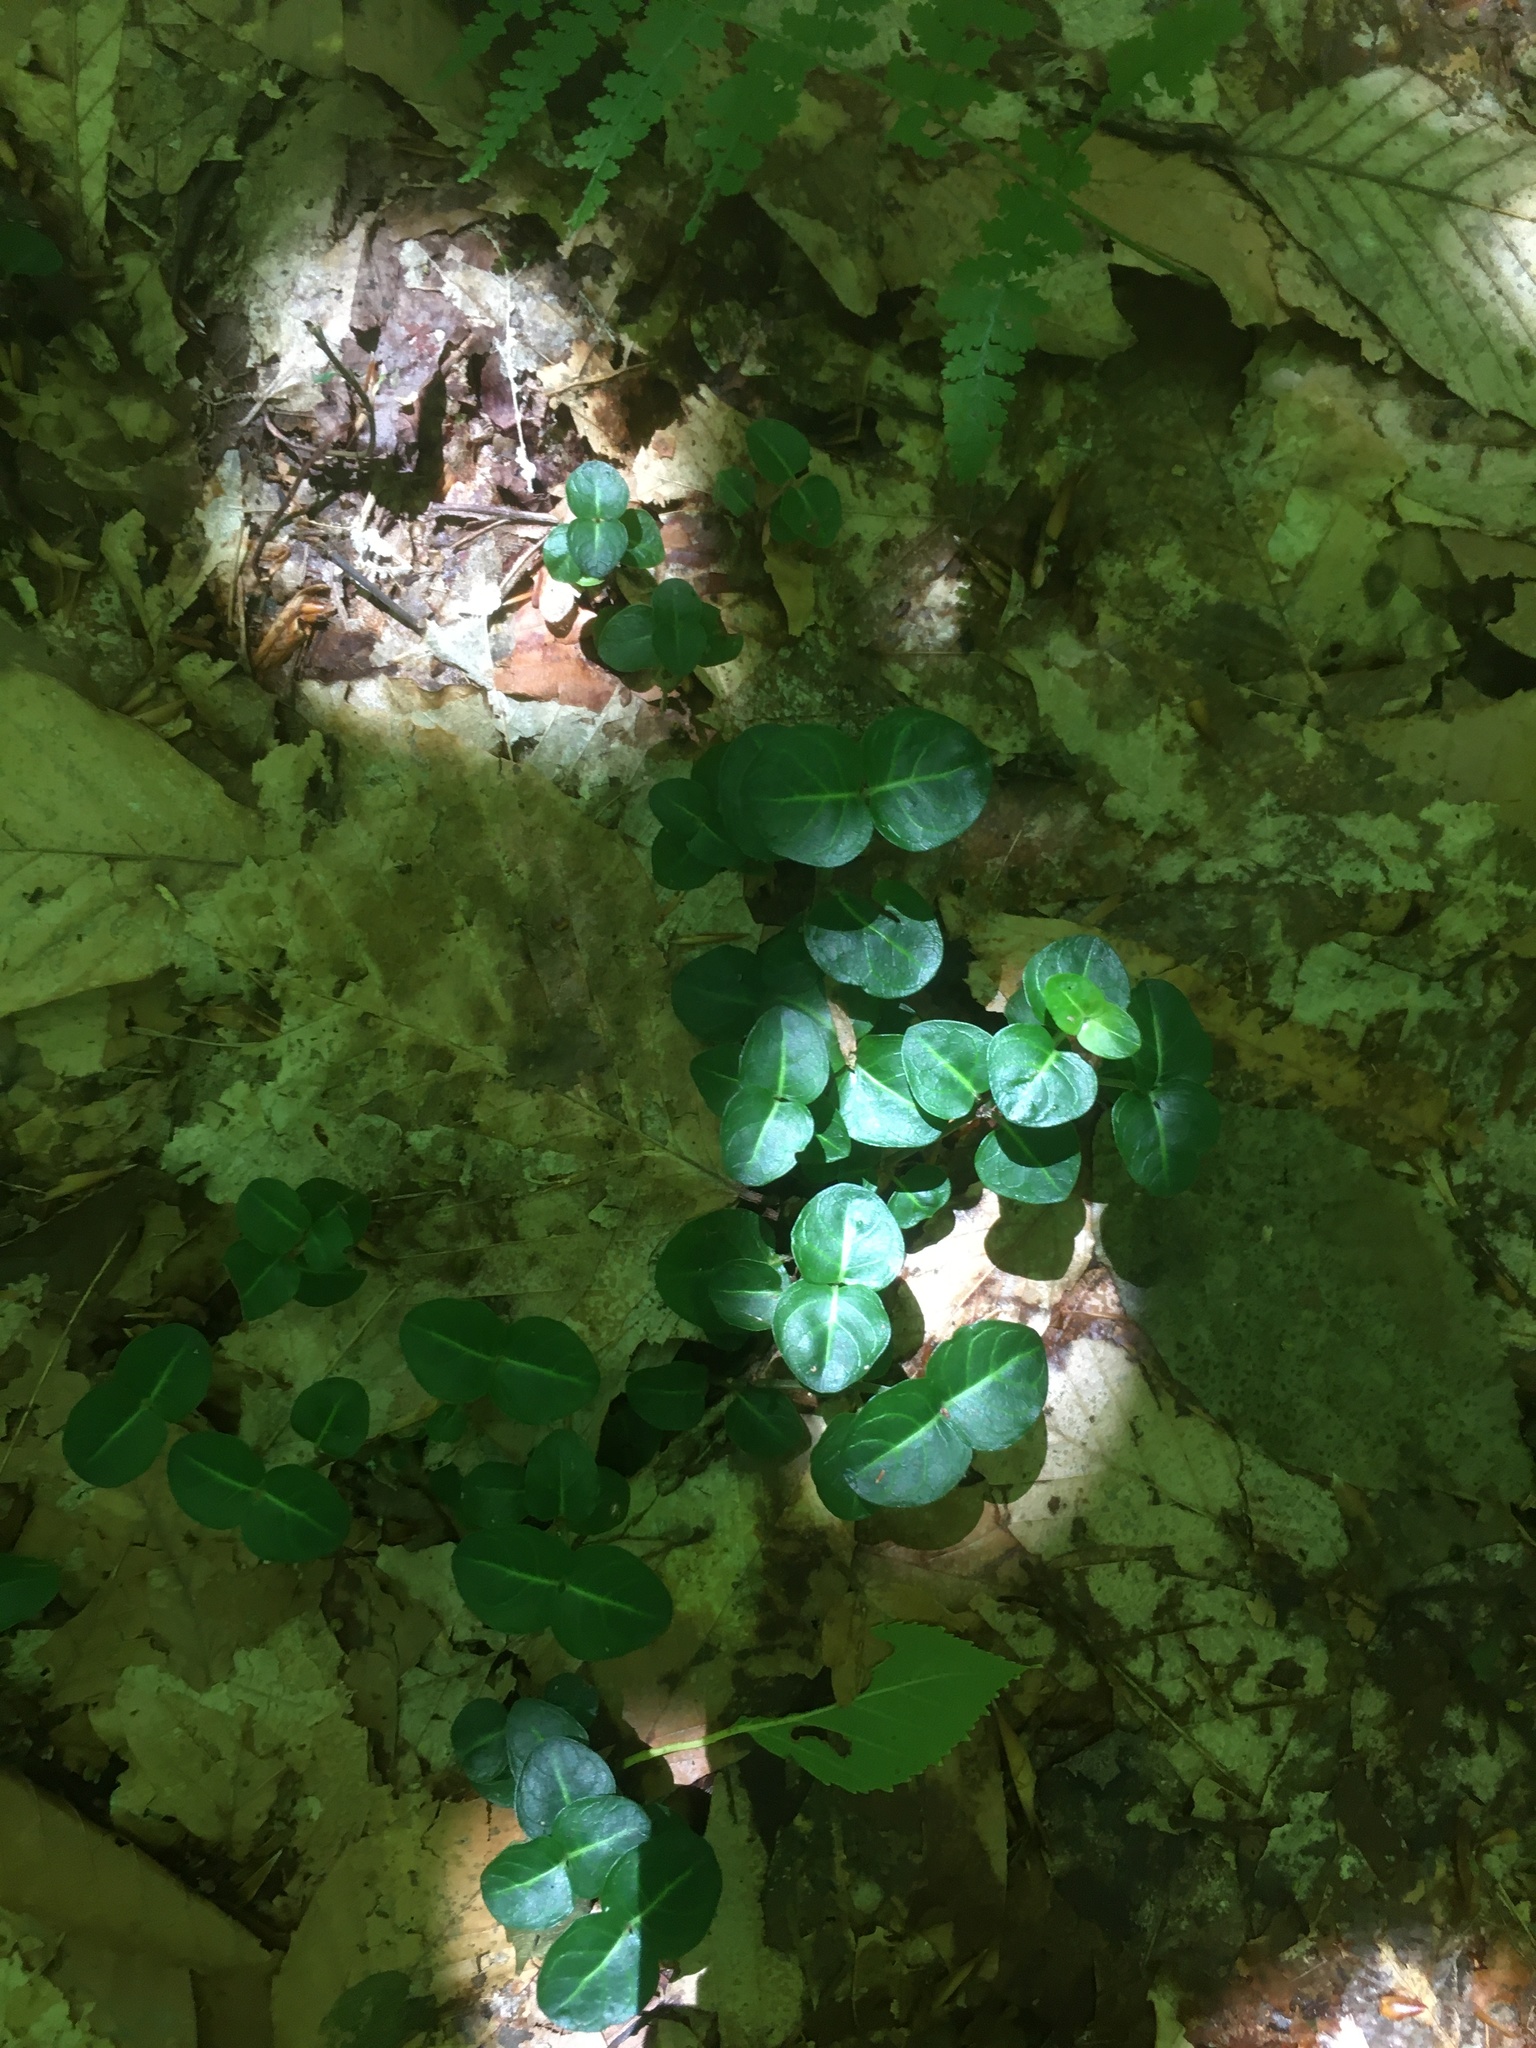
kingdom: Plantae
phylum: Tracheophyta
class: Magnoliopsida
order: Gentianales
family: Rubiaceae
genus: Mitchella
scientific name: Mitchella repens
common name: Partridge-berry
